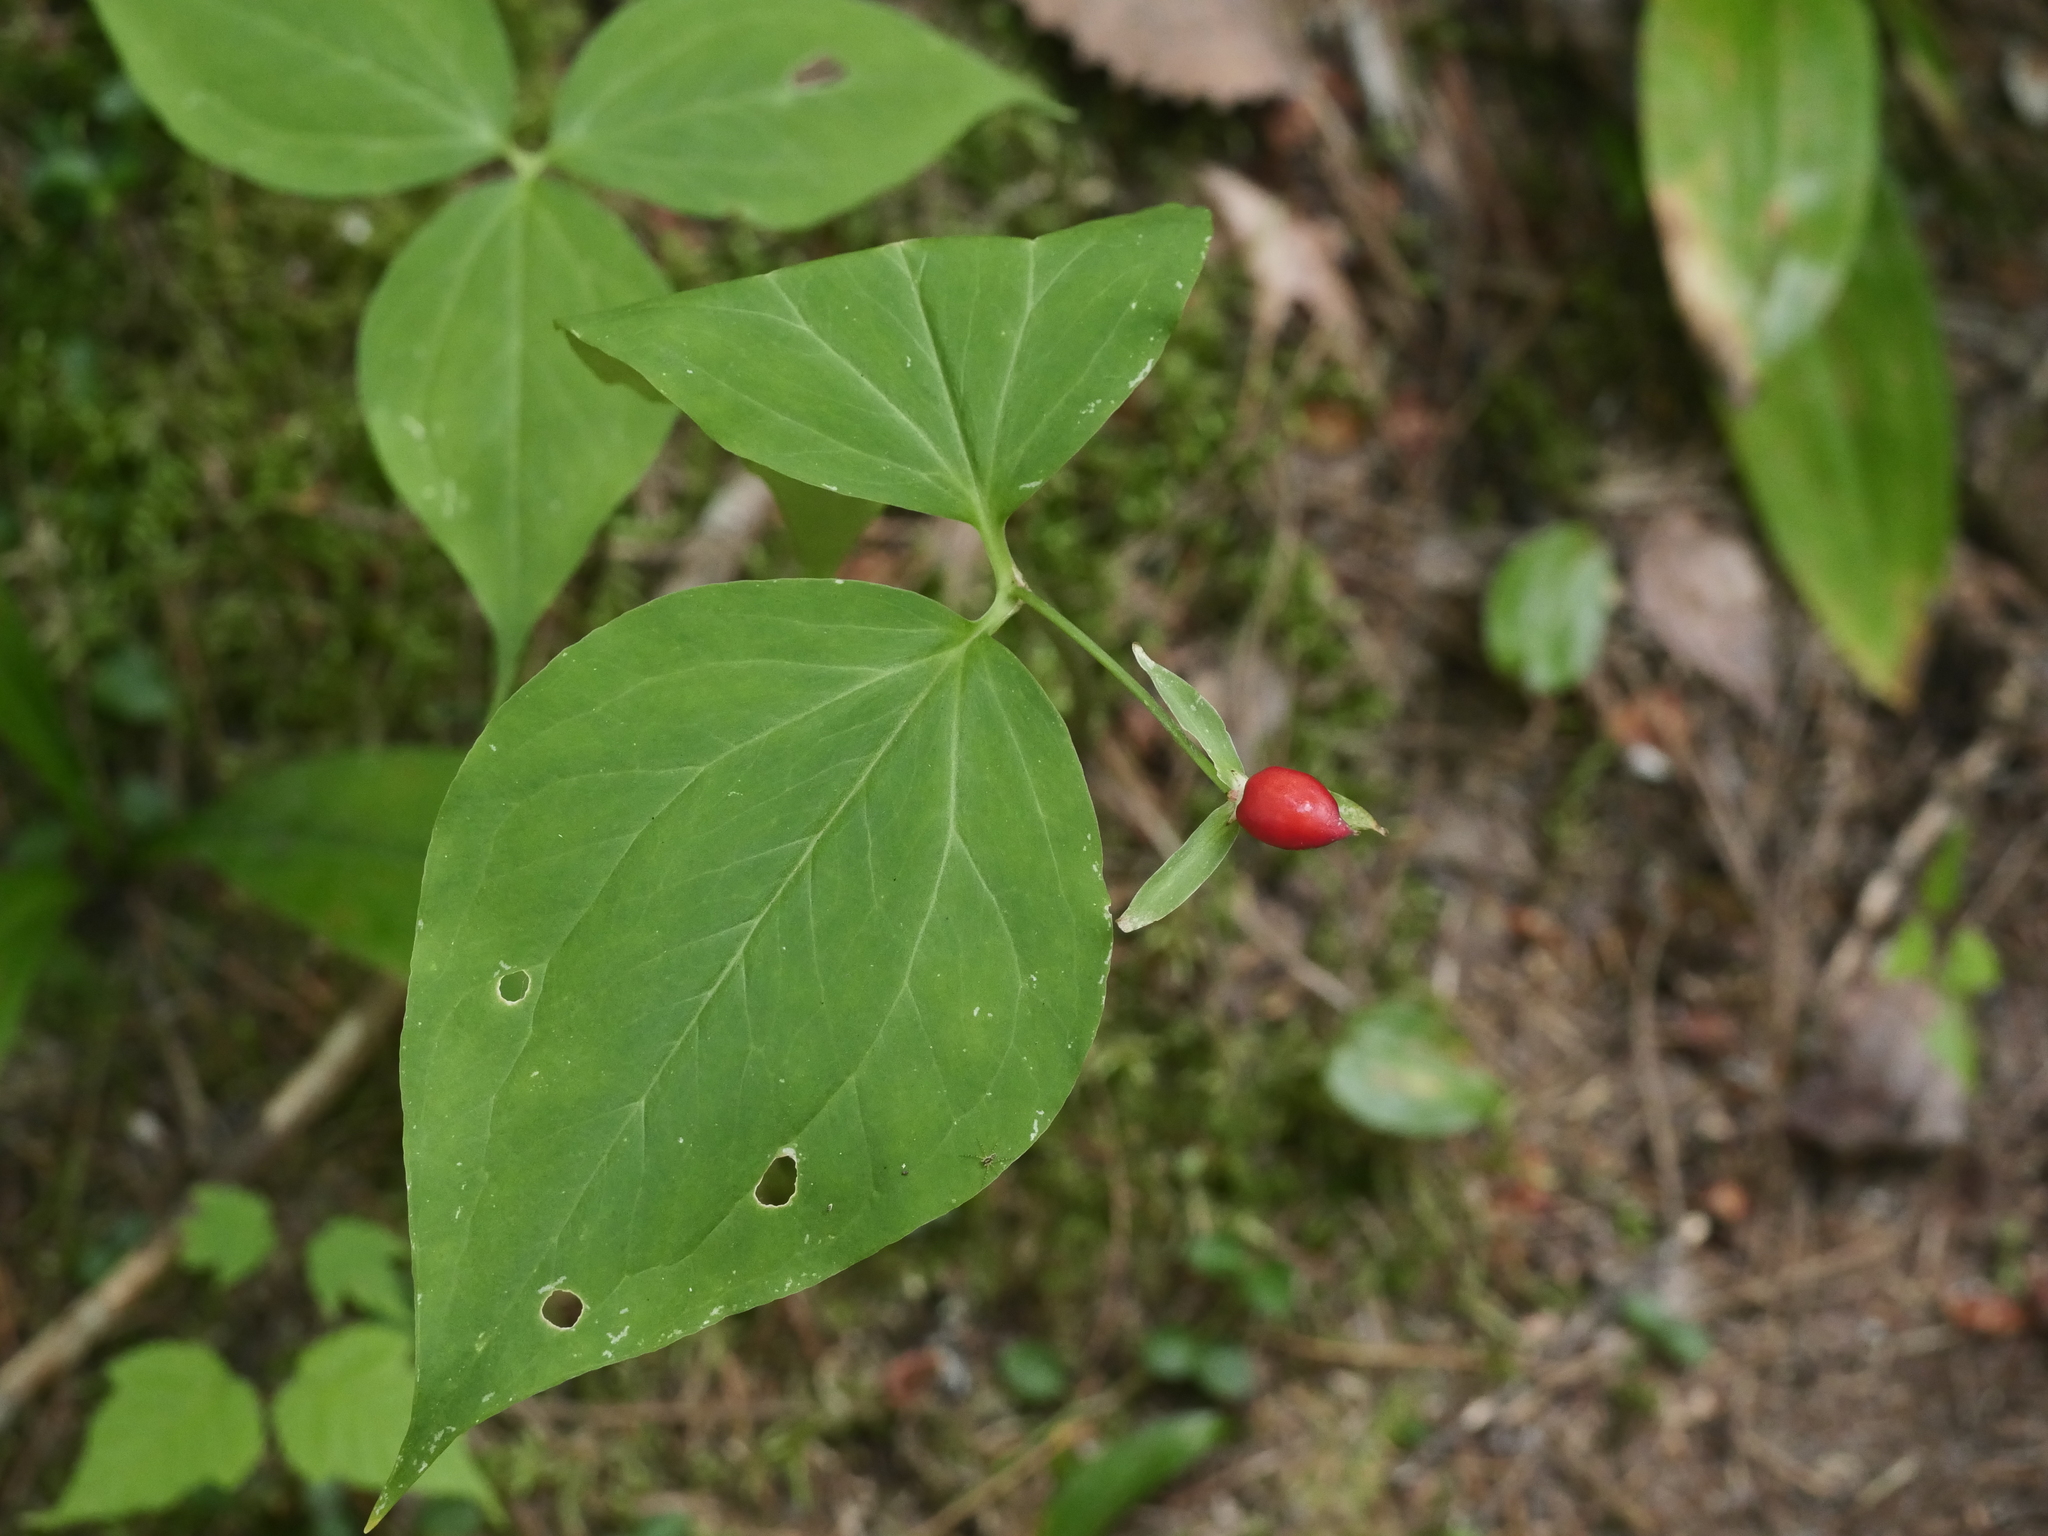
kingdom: Plantae
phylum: Tracheophyta
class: Liliopsida
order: Liliales
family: Melanthiaceae
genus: Trillium
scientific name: Trillium undulatum
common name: Paint trillium
